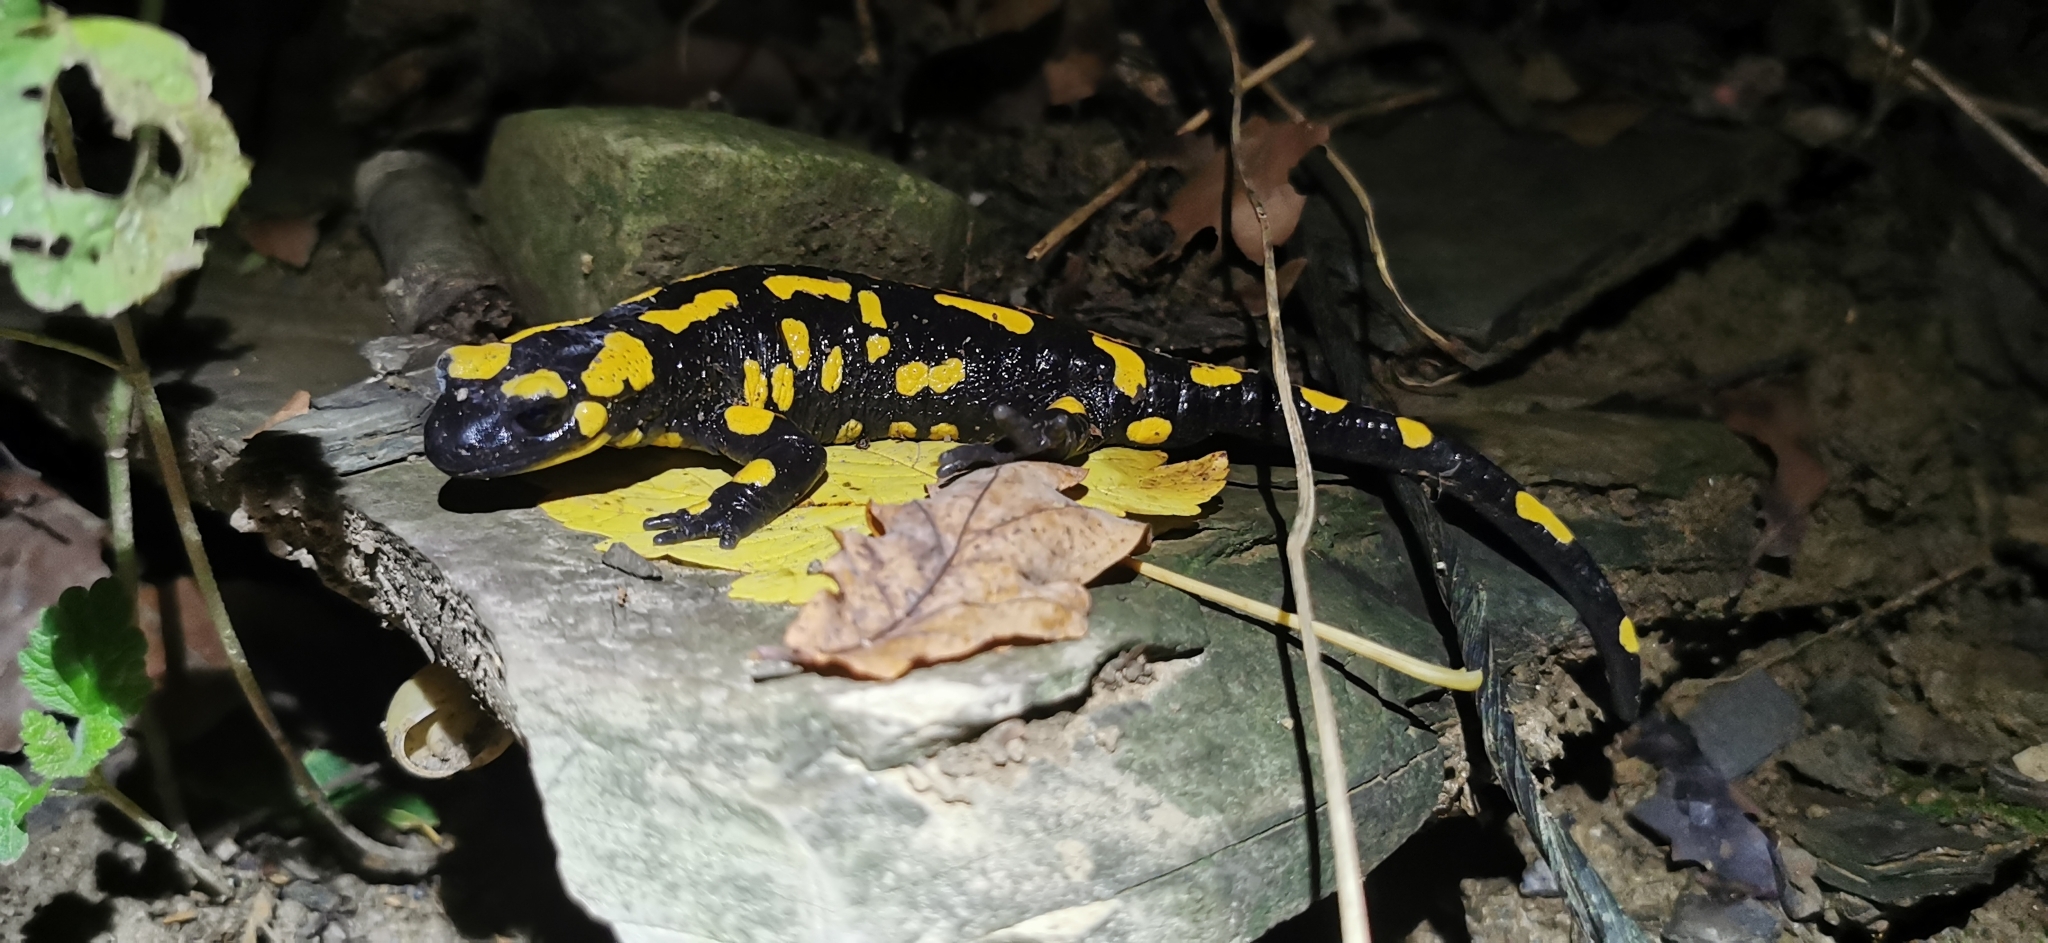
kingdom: Animalia
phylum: Chordata
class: Amphibia
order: Caudata
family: Salamandridae
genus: Salamandra
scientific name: Salamandra salamandra
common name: Fire salamander
